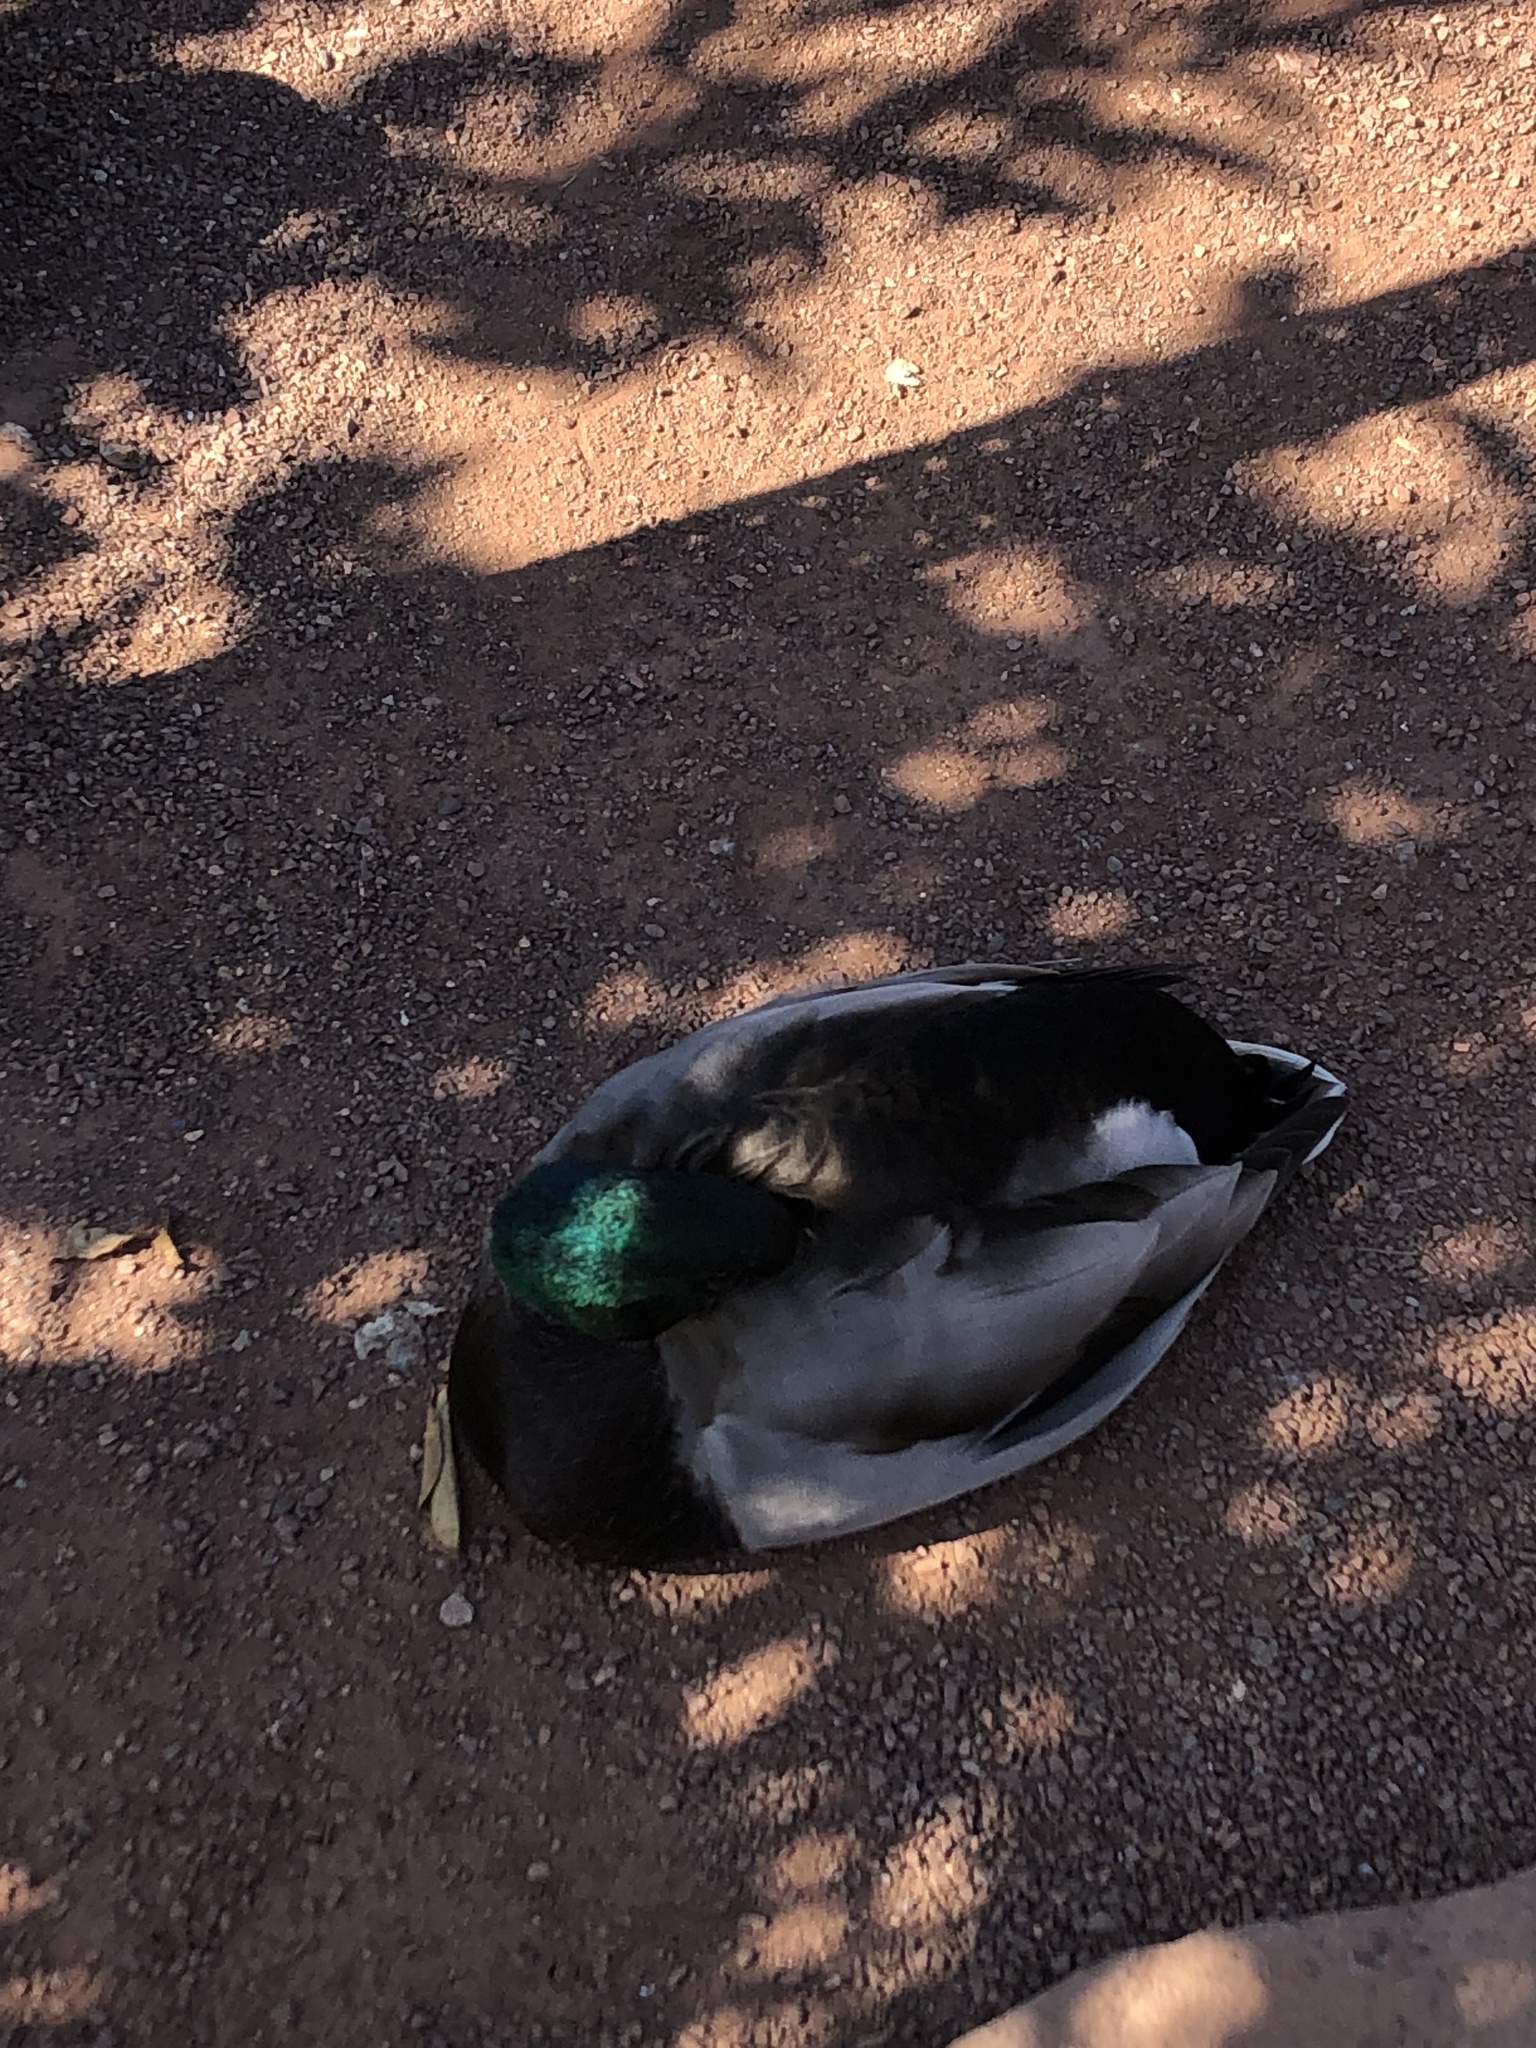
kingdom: Animalia
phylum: Chordata
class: Aves
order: Anseriformes
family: Anatidae
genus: Anas
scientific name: Anas platyrhynchos
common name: Mallard
